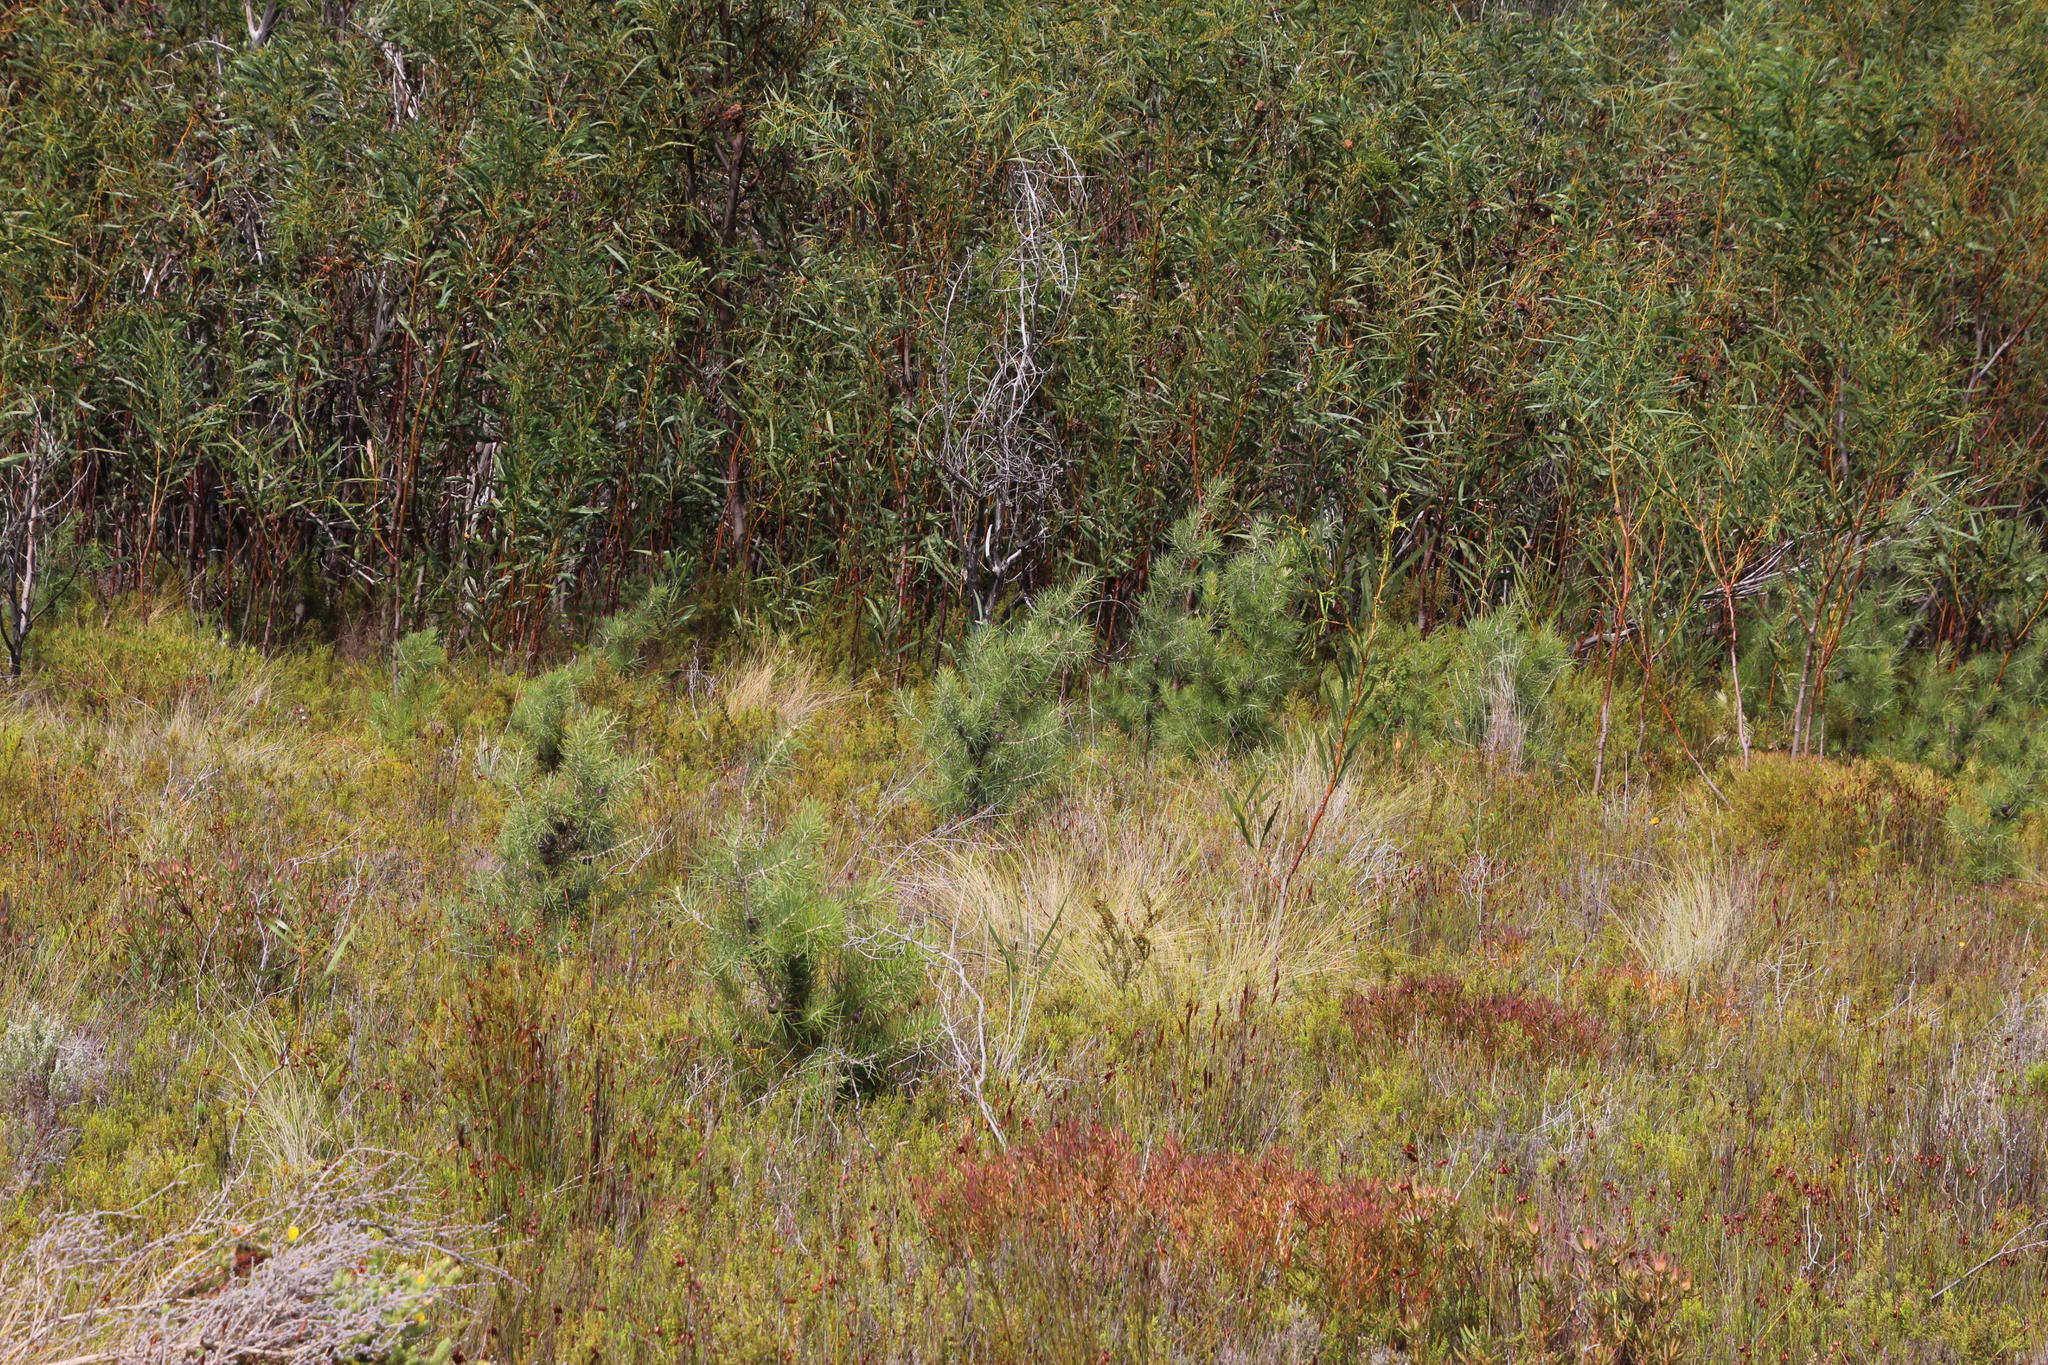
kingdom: Plantae
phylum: Tracheophyta
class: Magnoliopsida
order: Proteales
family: Proteaceae
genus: Hakea
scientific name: Hakea gibbosa
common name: Rock hakea
